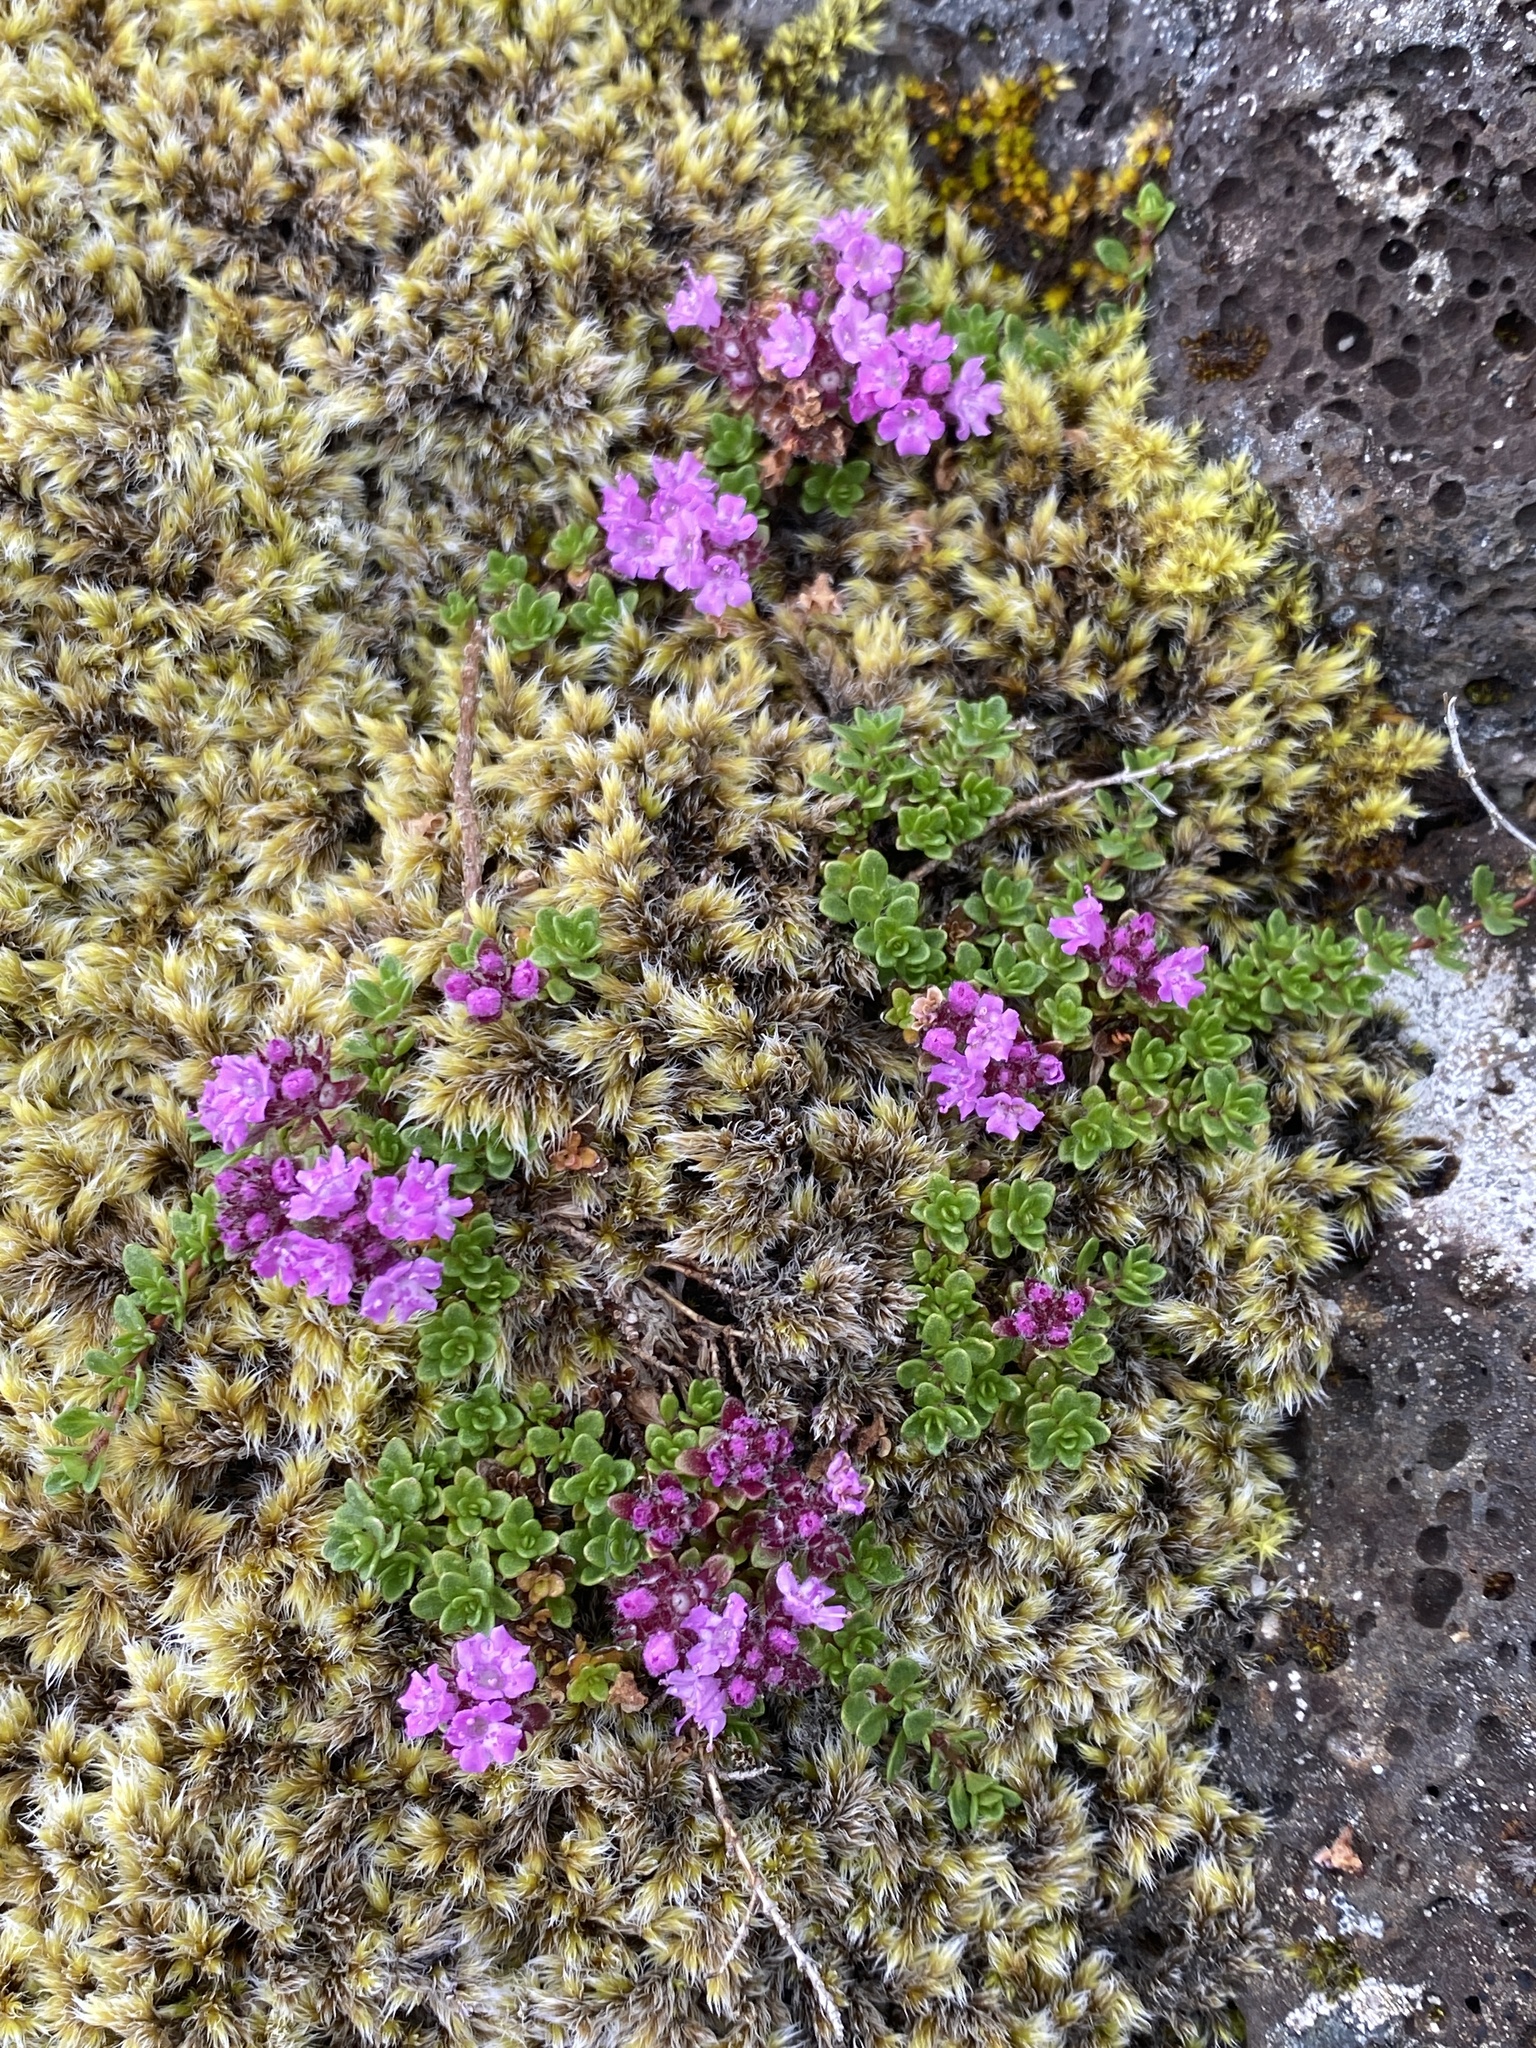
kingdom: Plantae
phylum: Tracheophyta
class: Magnoliopsida
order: Lamiales
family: Lamiaceae
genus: Thymus
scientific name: Thymus praecox
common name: Wild thyme
